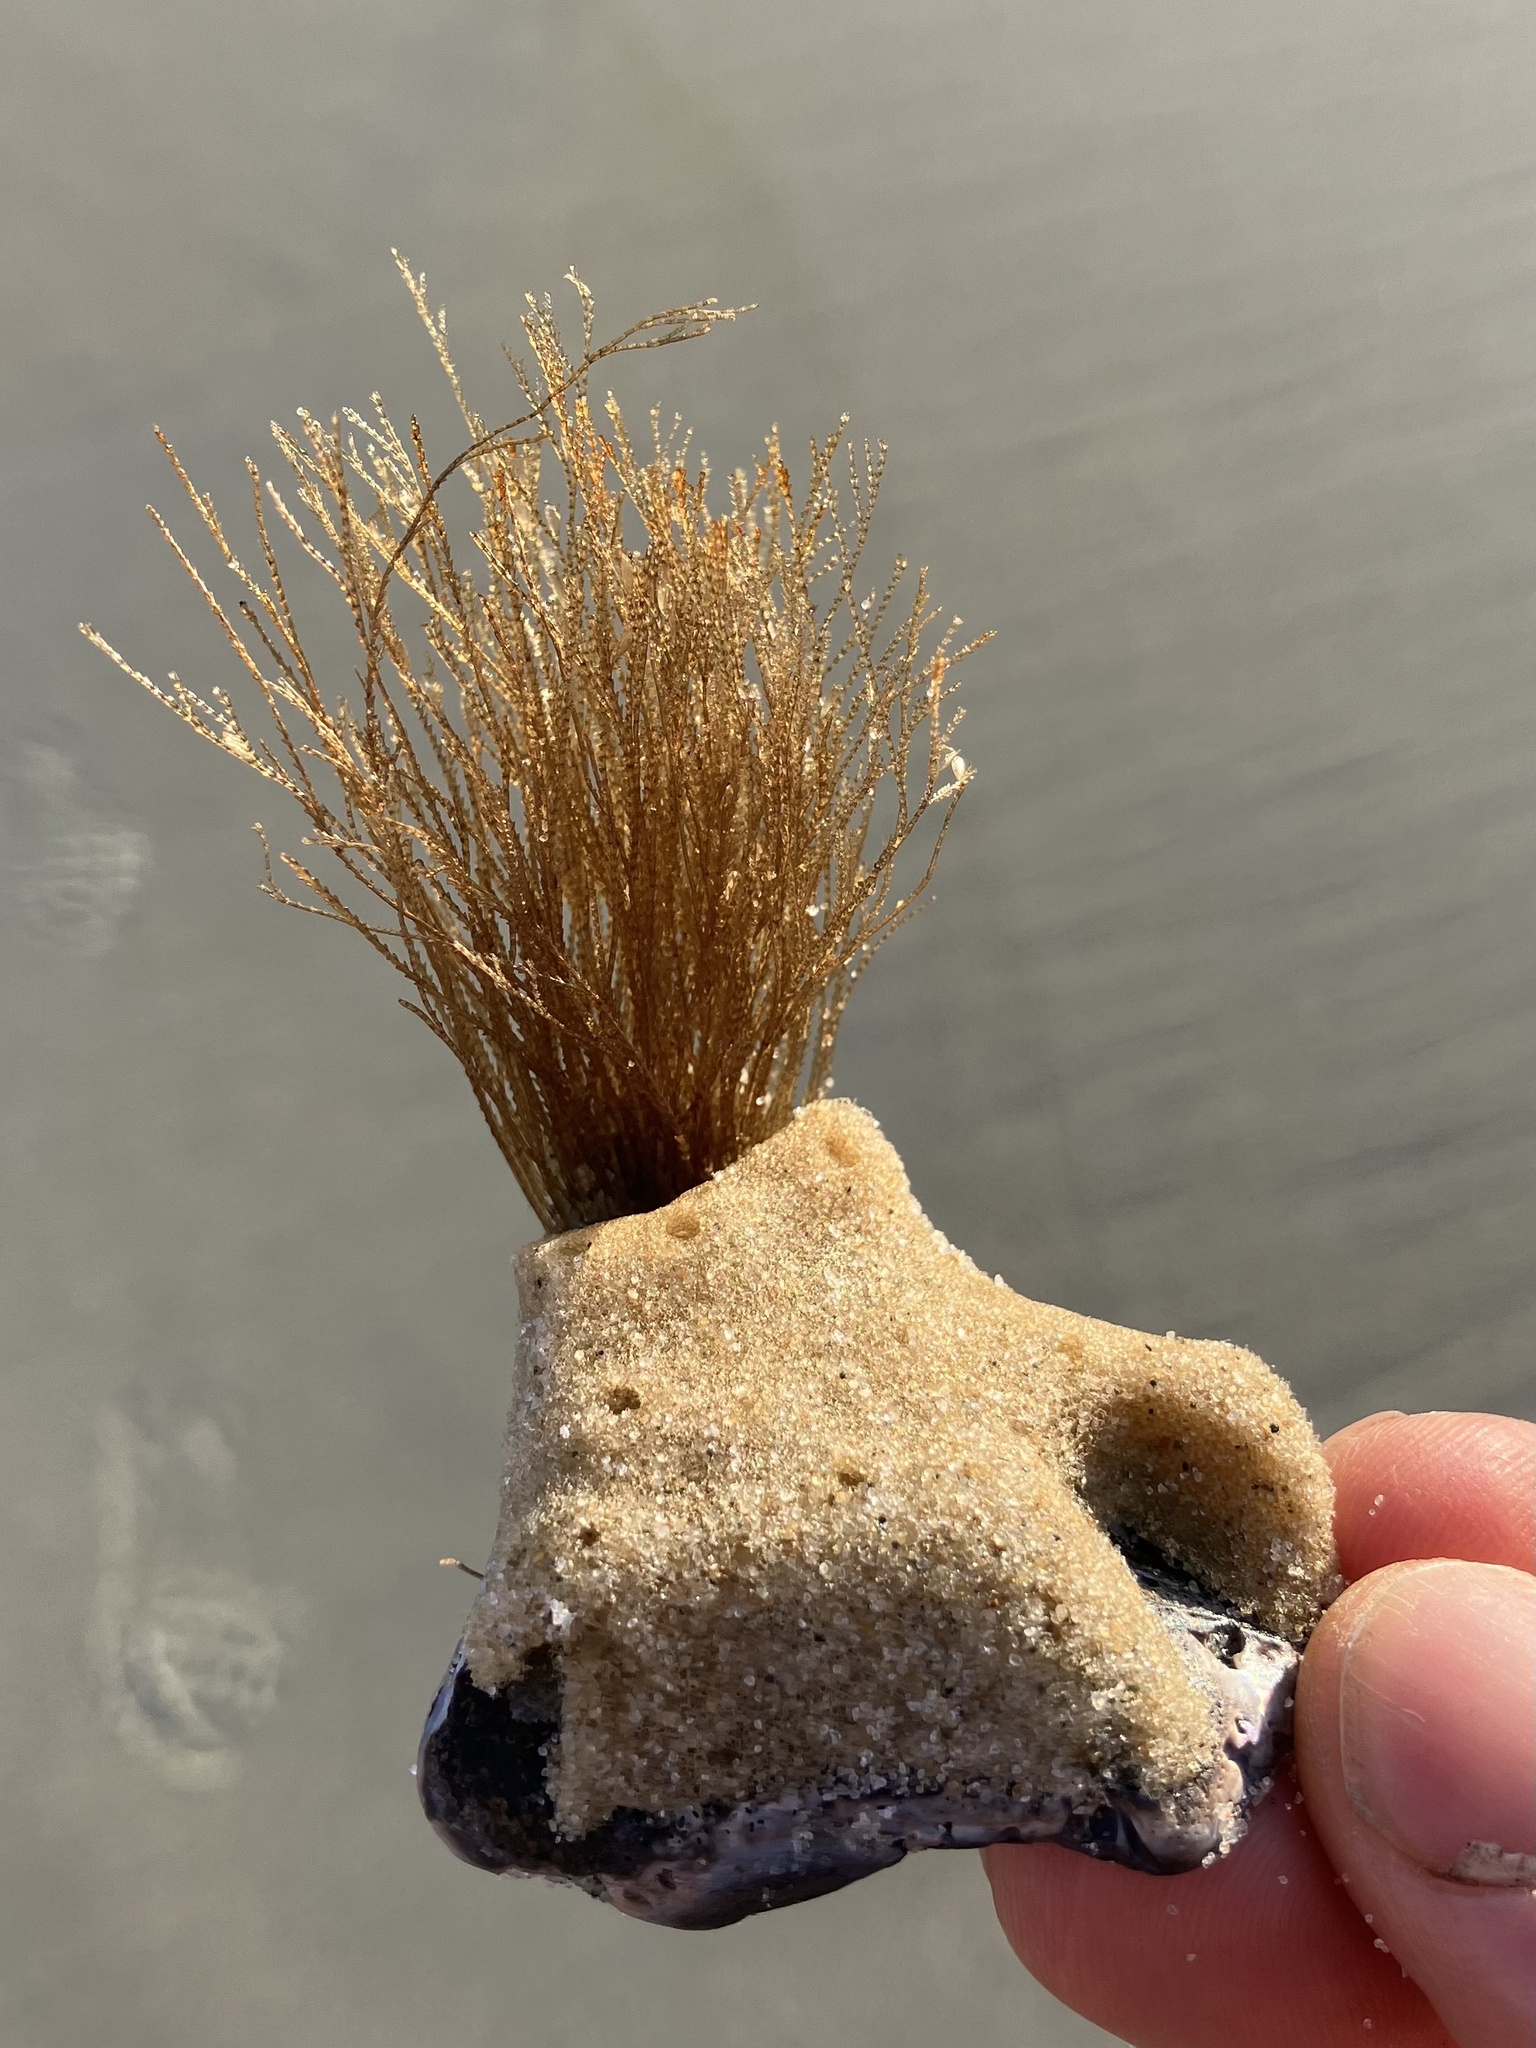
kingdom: Animalia
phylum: Cnidaria
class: Hydrozoa
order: Leptothecata
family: Sertulariidae
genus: Amphisbetia
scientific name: Amphisbetia bispinosa
